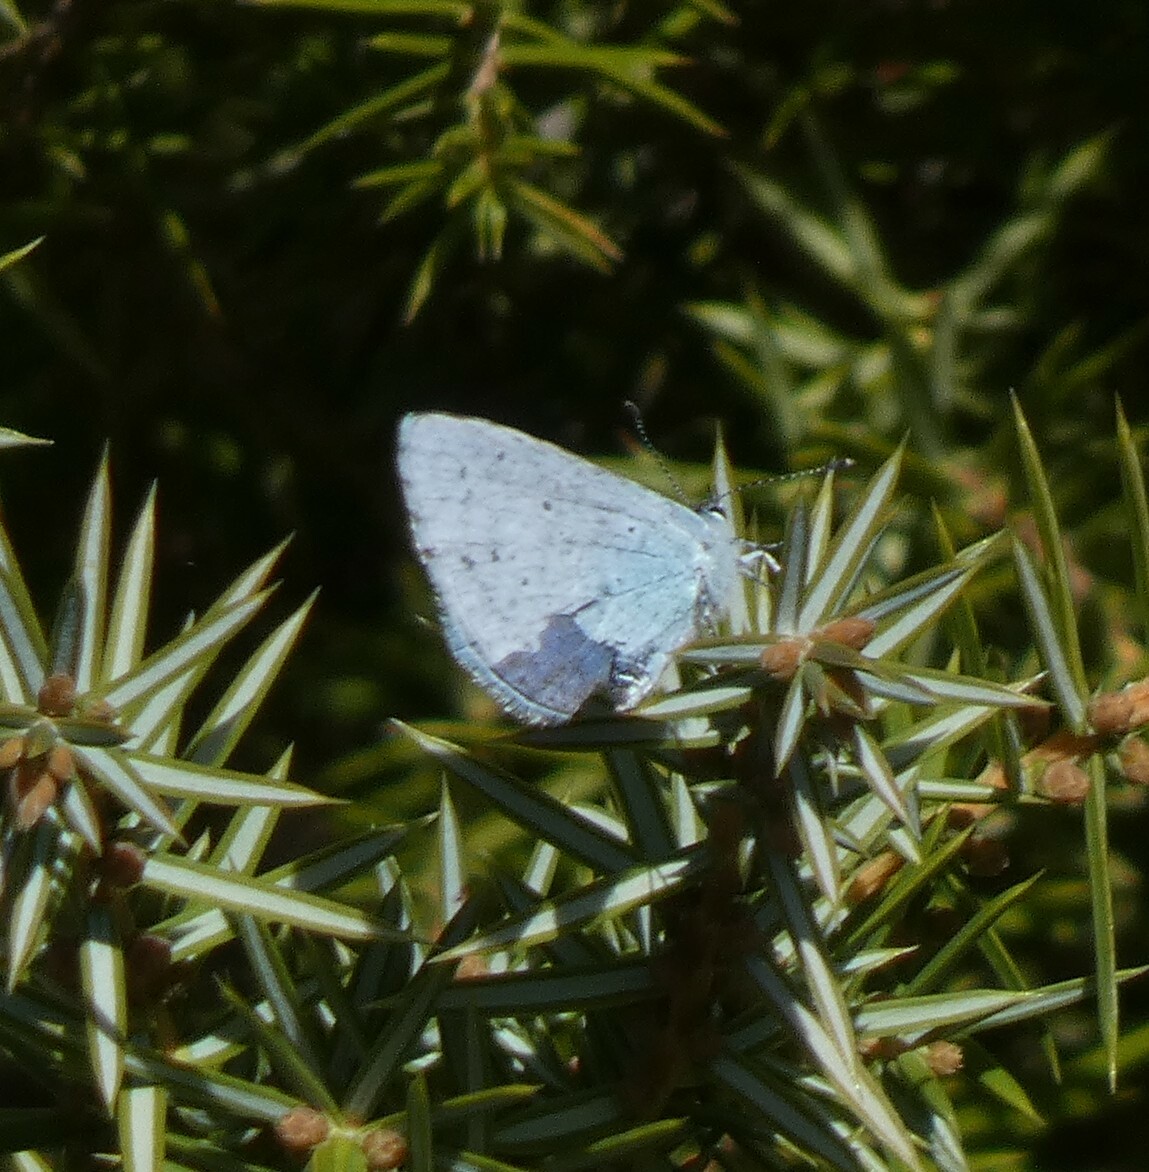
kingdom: Animalia
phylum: Arthropoda
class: Insecta
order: Lepidoptera
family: Lycaenidae
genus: Celastrina
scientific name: Celastrina argiolus
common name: Holly blue
